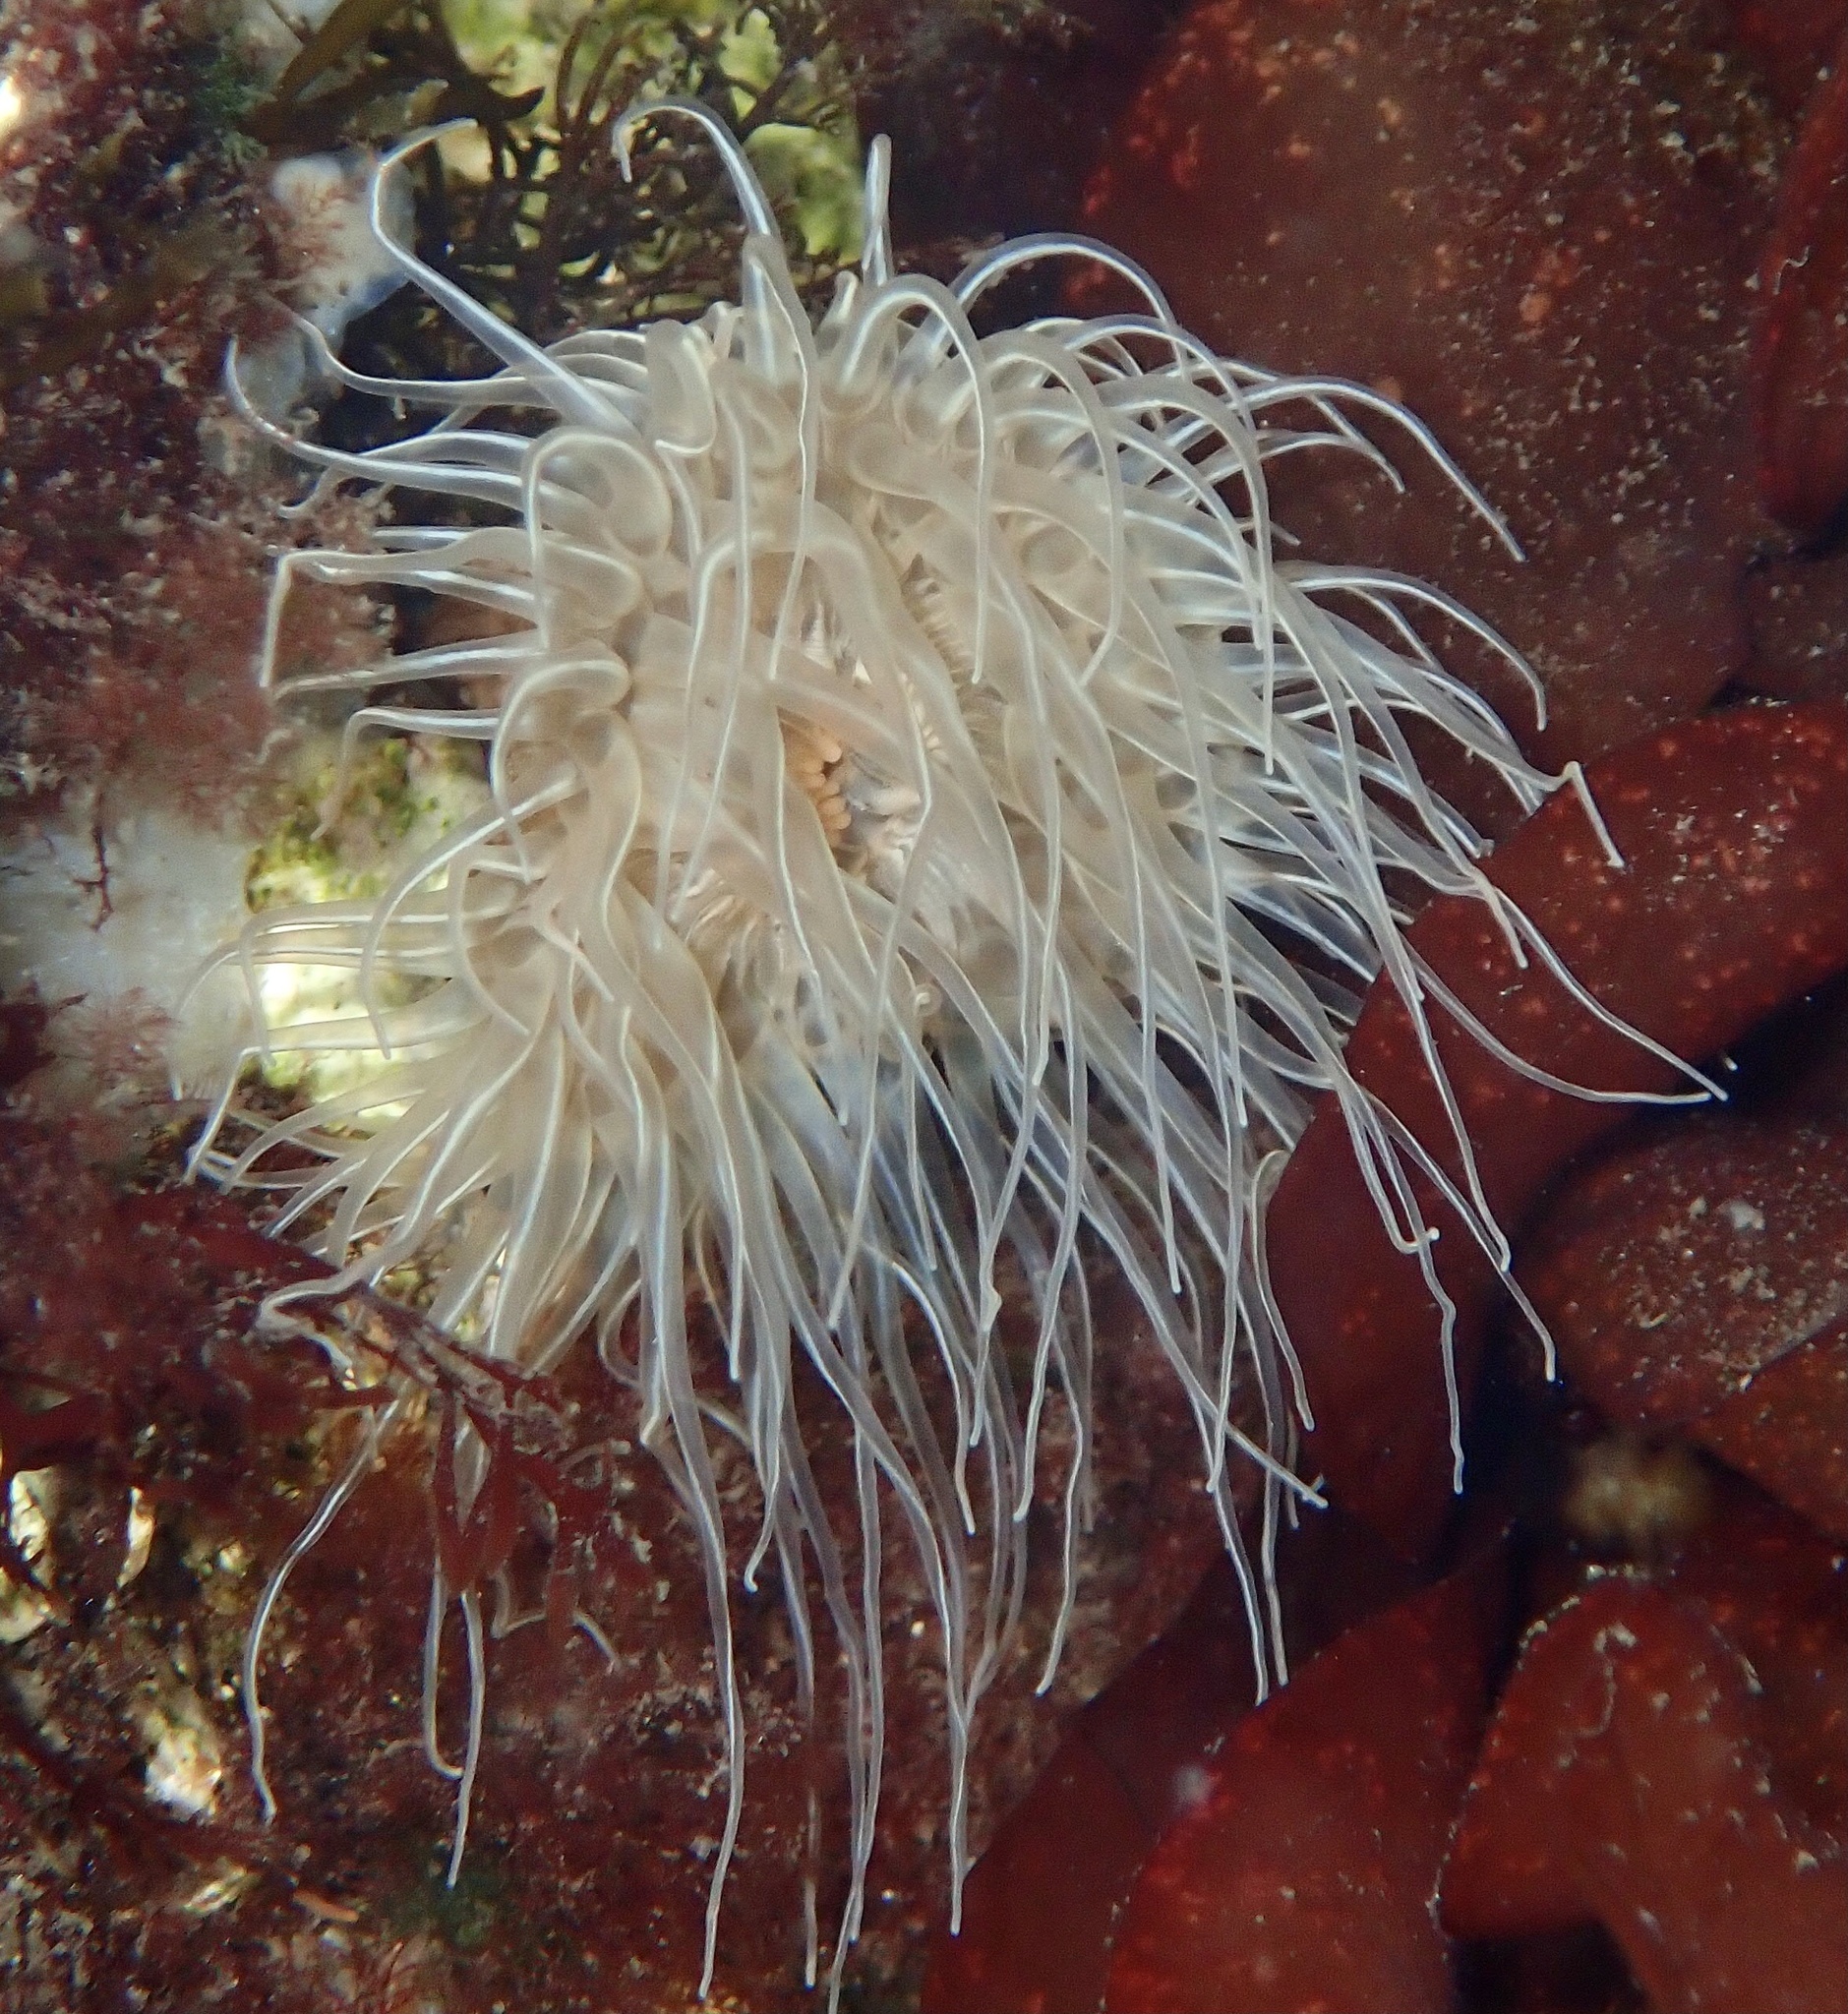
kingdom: Animalia
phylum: Cnidaria
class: Anthozoa
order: Actiniaria
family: Sagartiidae
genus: Sagartia
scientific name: Sagartia undata
